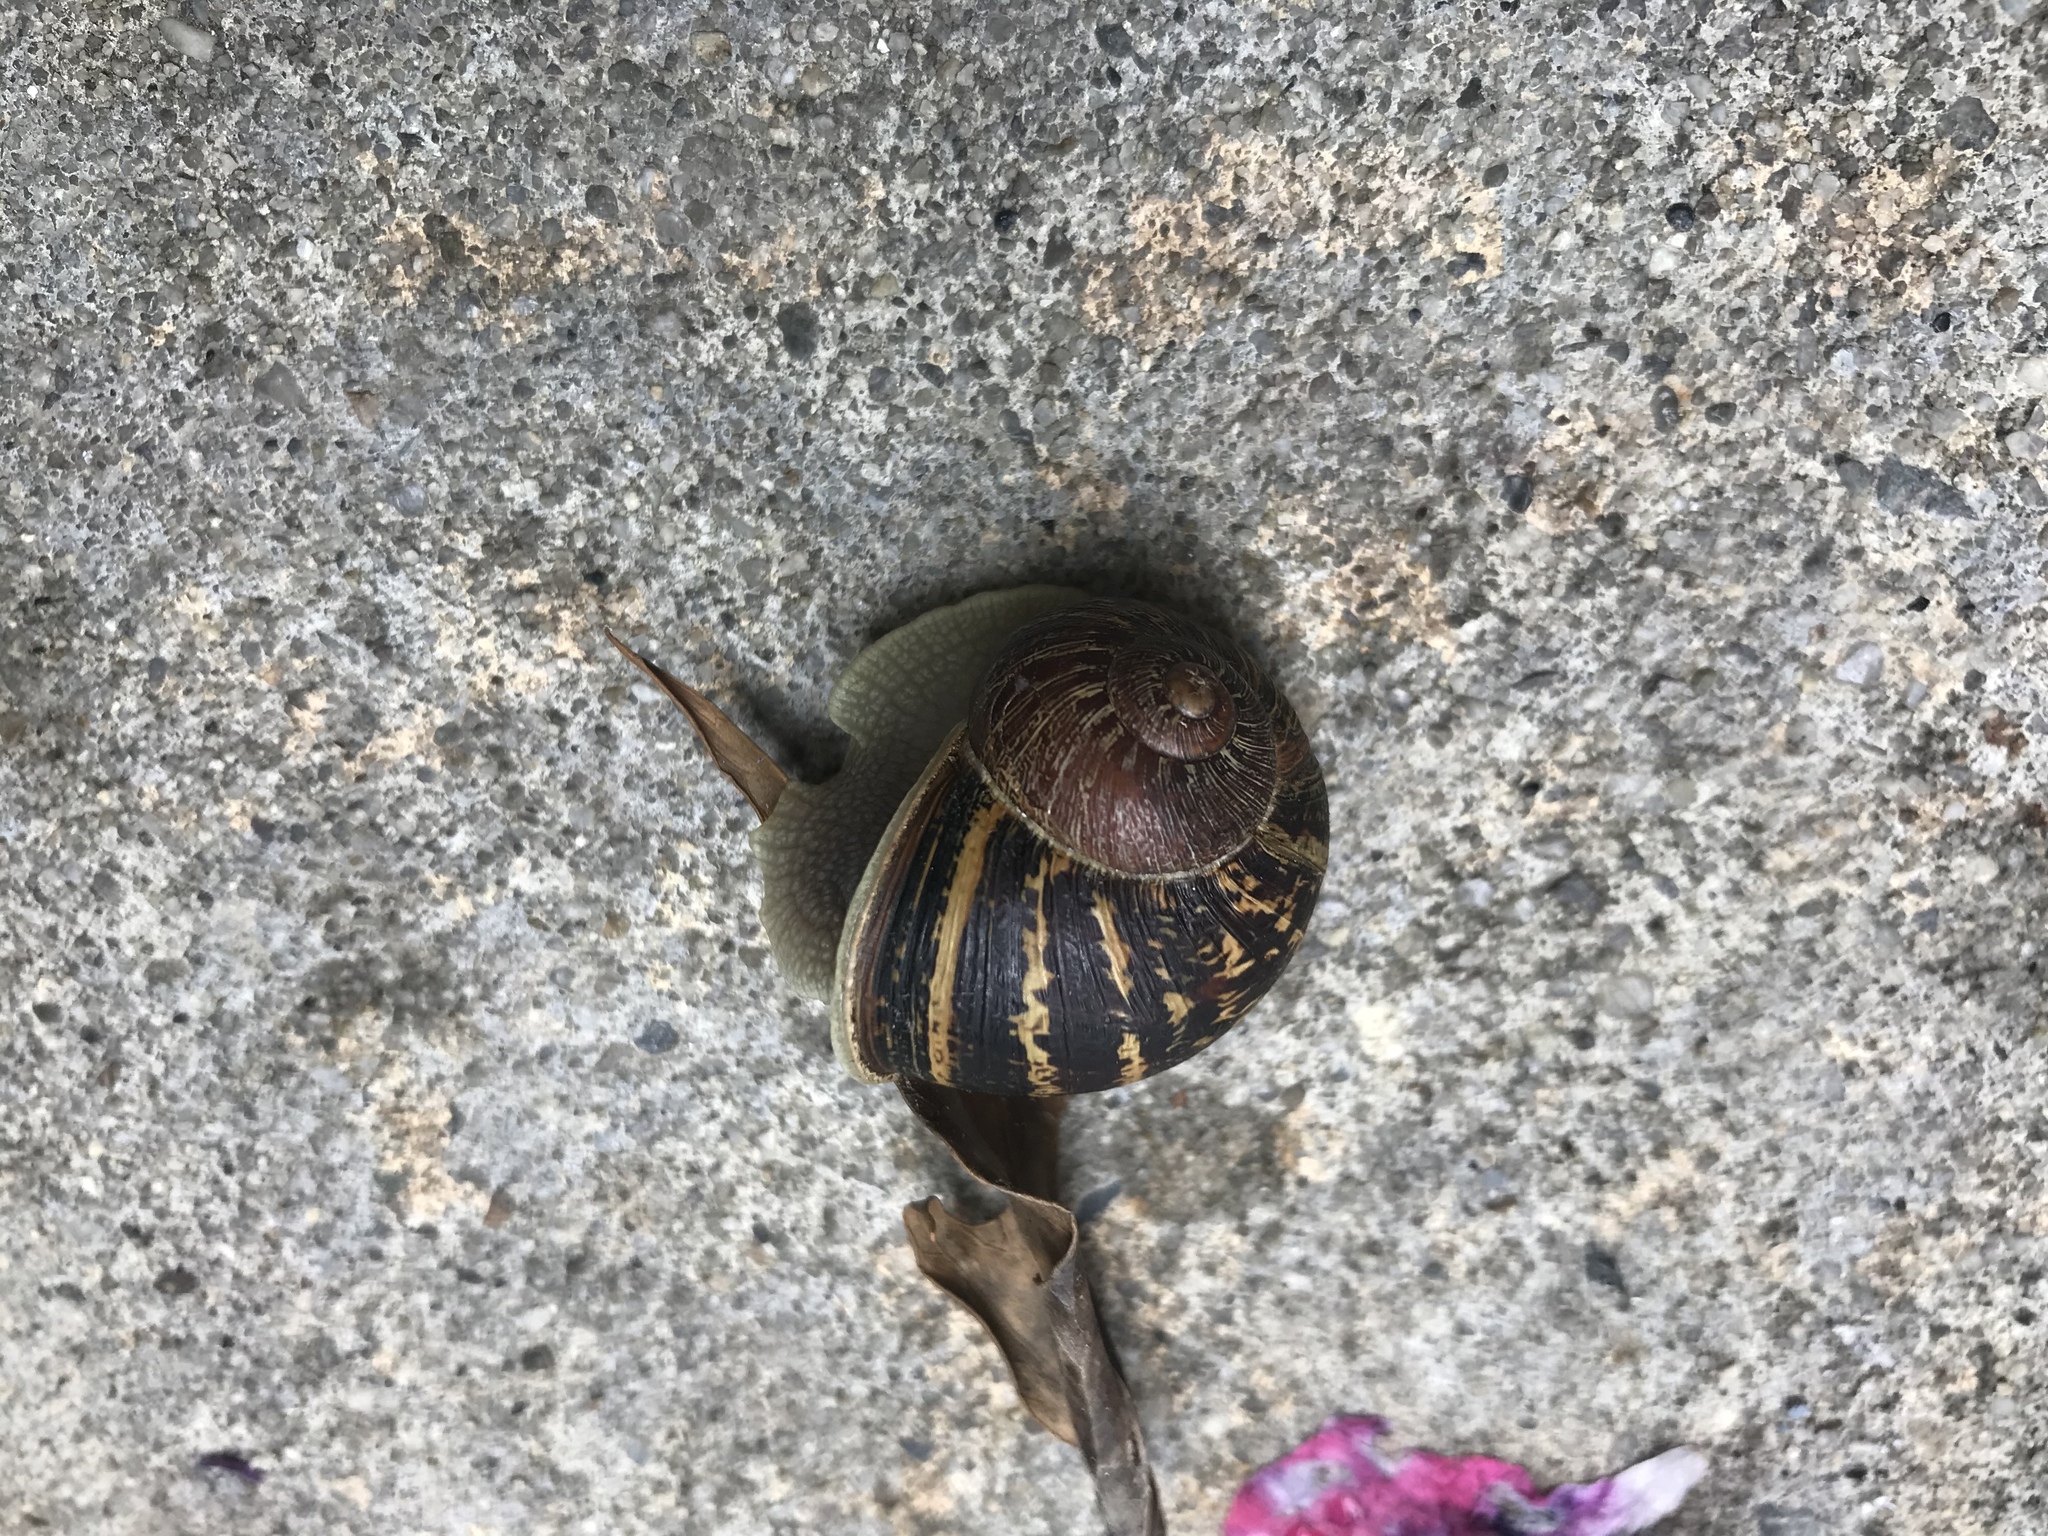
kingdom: Animalia
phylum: Mollusca
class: Gastropoda
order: Stylommatophora
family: Helicidae
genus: Cornu
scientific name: Cornu aspersum
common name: Brown garden snail
